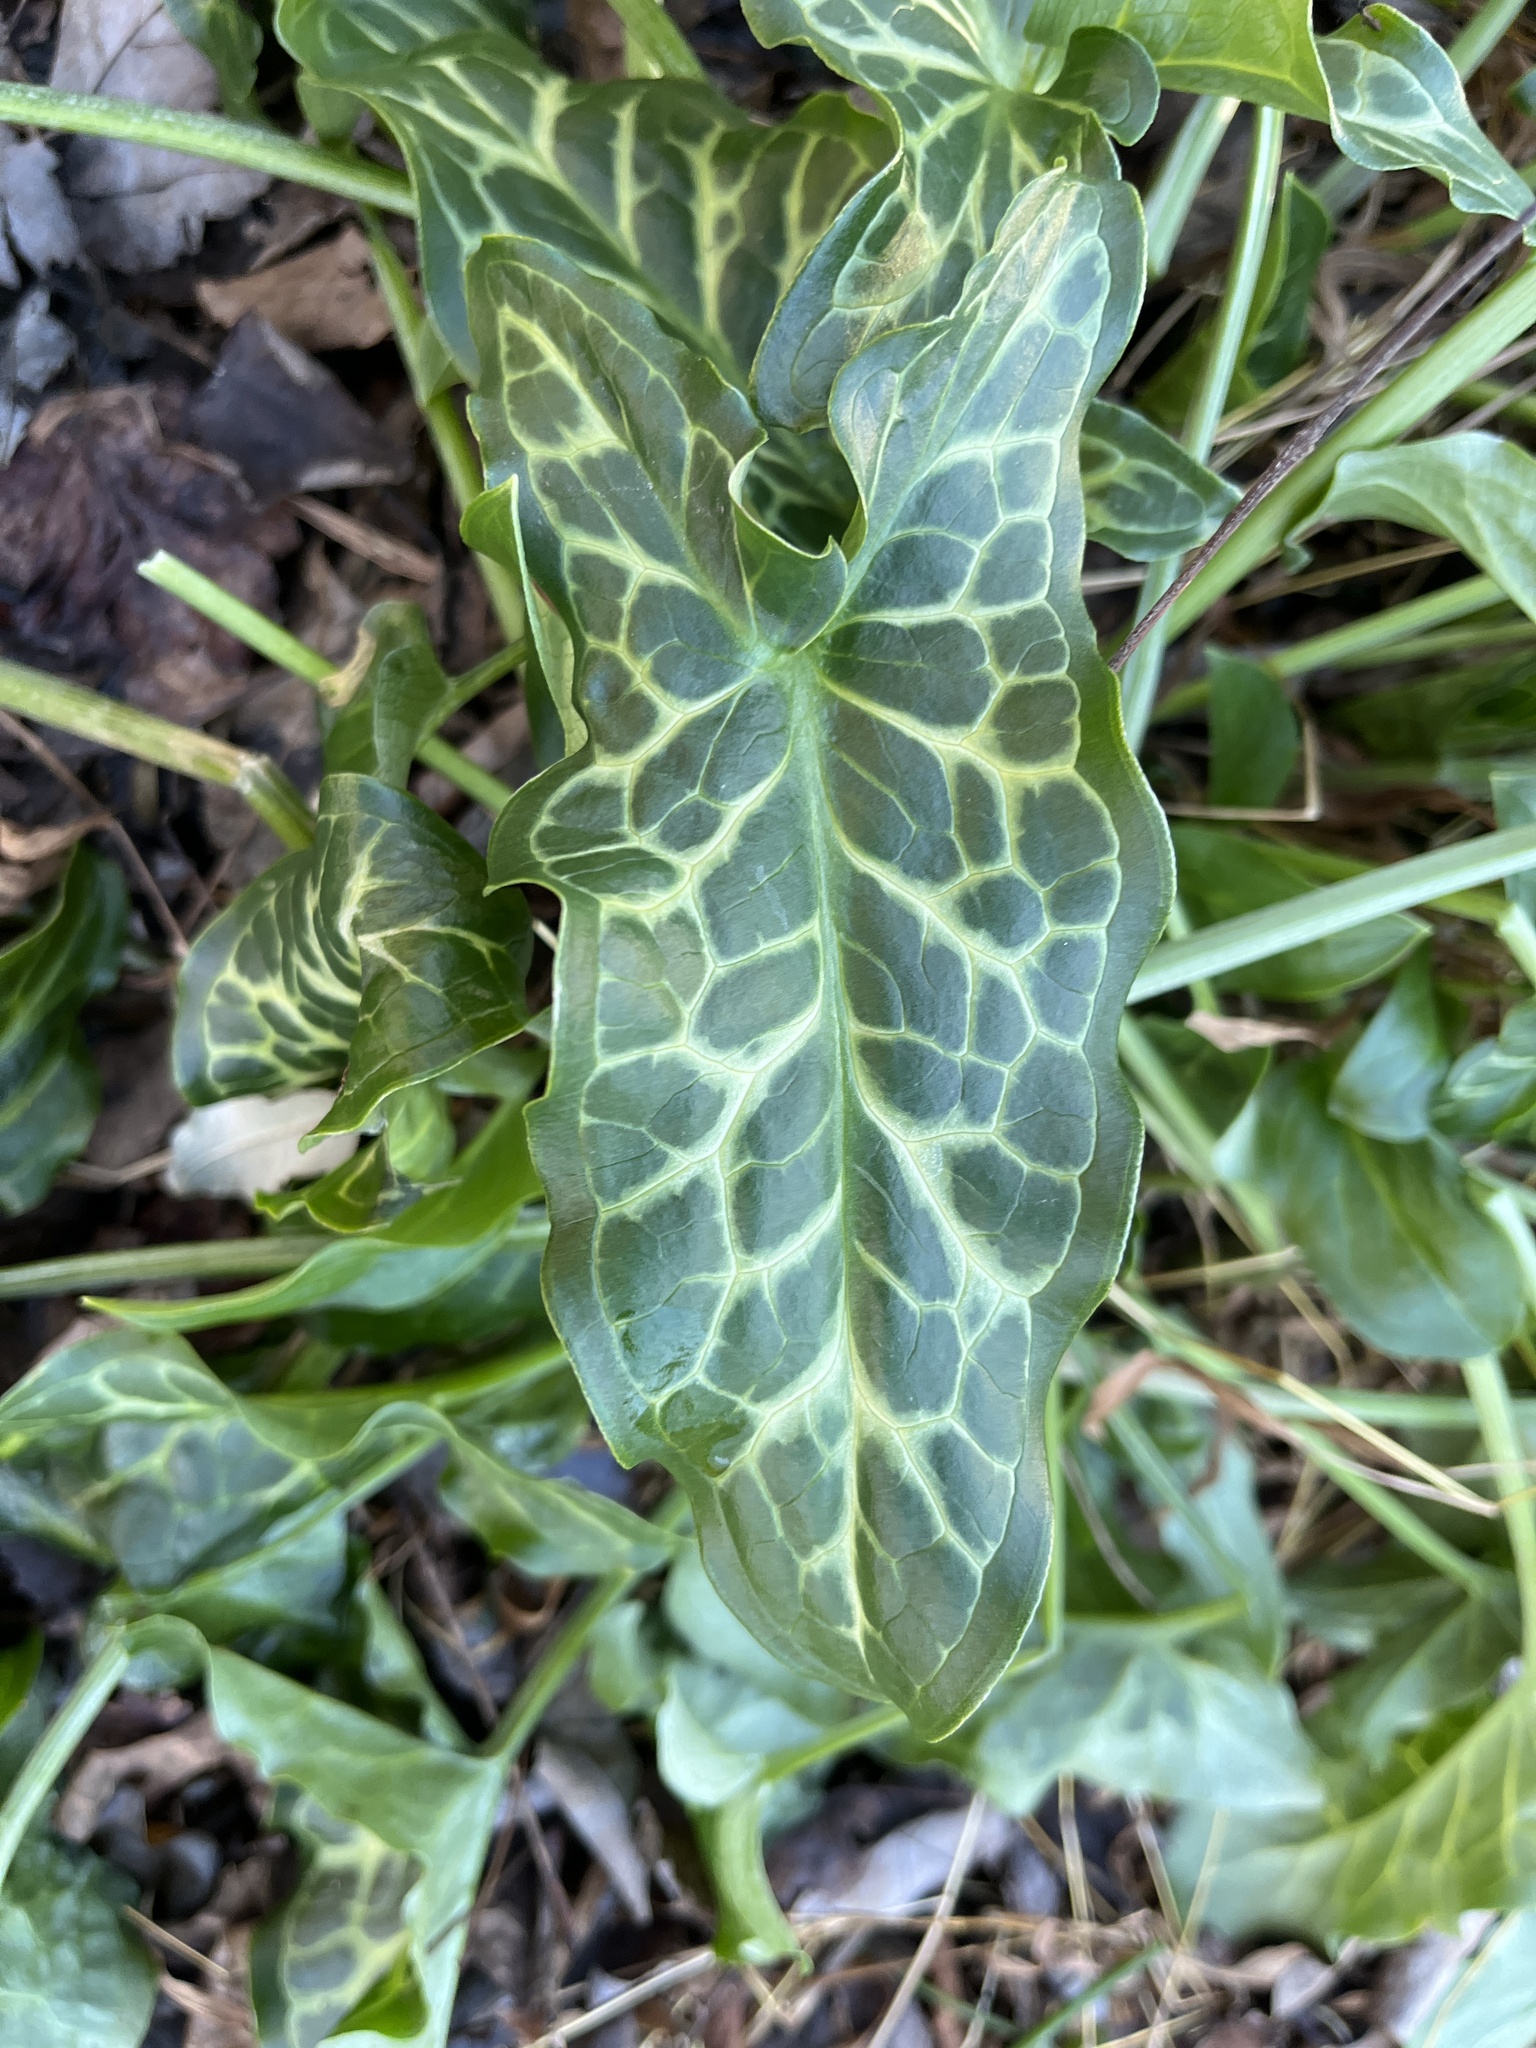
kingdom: Plantae
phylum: Tracheophyta
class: Liliopsida
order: Alismatales
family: Araceae
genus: Arum
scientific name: Arum italicum
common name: Italian lords-and-ladies
